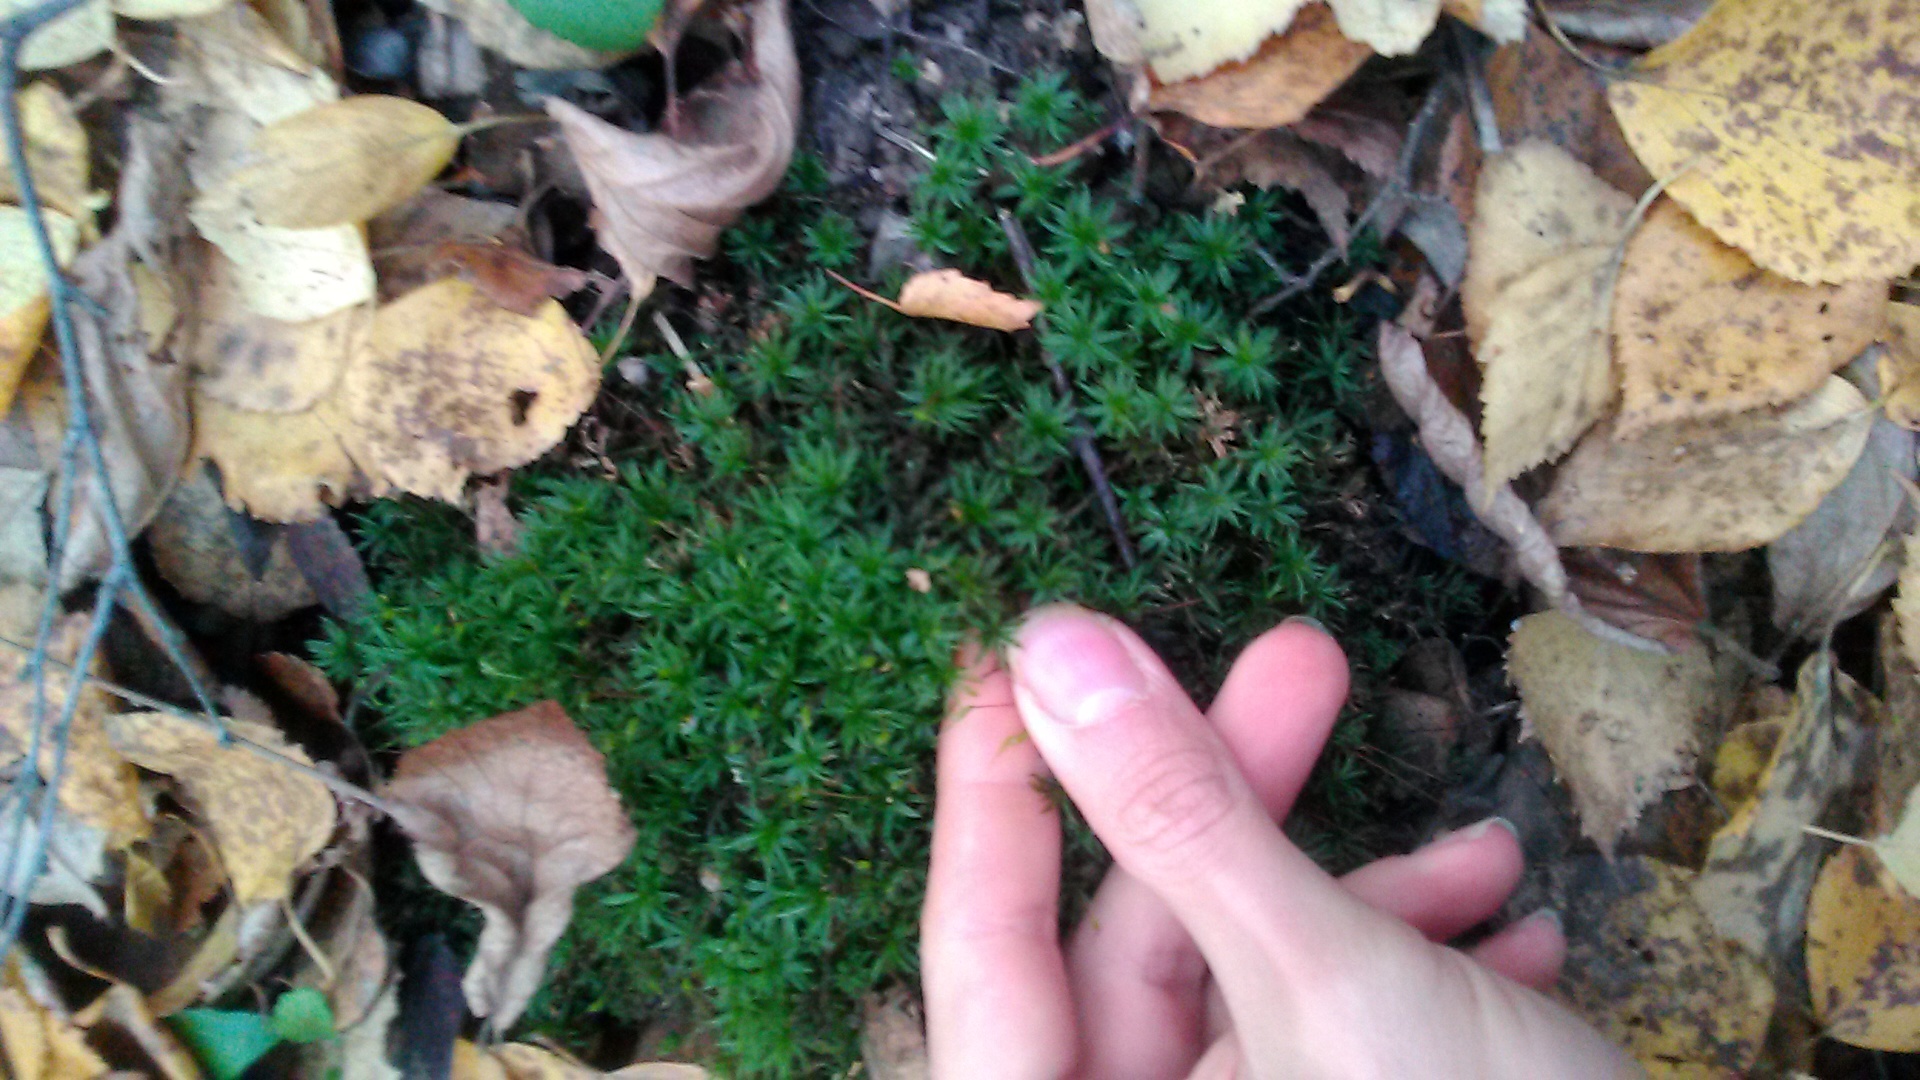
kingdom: Plantae
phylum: Bryophyta
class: Polytrichopsida
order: Polytrichales
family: Polytrichaceae
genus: Atrichum
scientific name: Atrichum undulatum
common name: Common smoothcap
